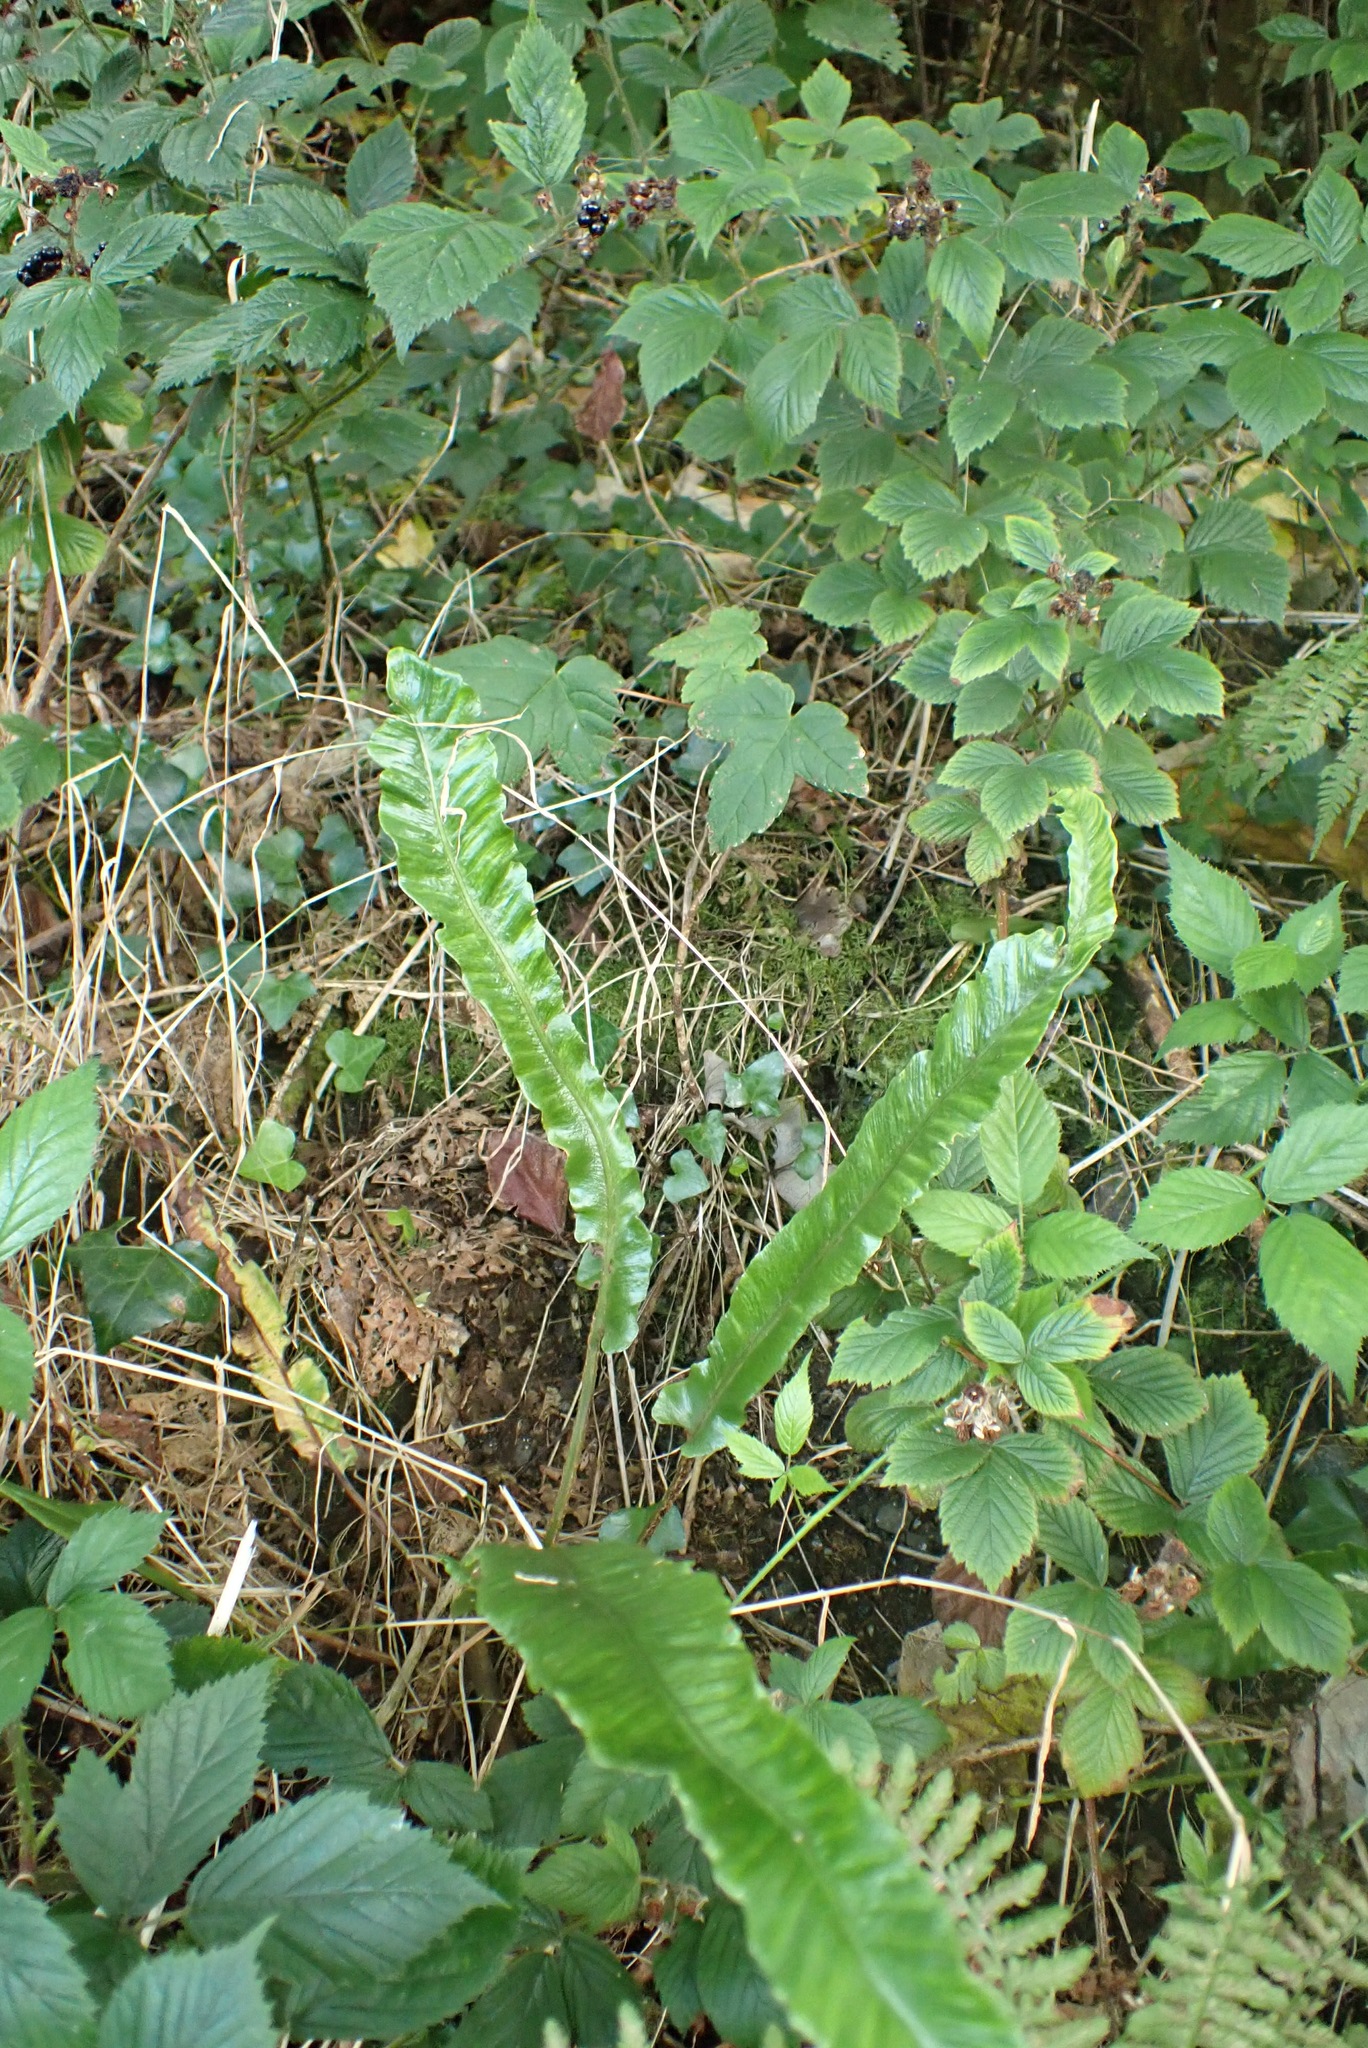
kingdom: Plantae
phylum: Tracheophyta
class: Polypodiopsida
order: Polypodiales
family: Aspleniaceae
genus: Asplenium
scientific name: Asplenium scolopendrium
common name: Hart's-tongue fern
